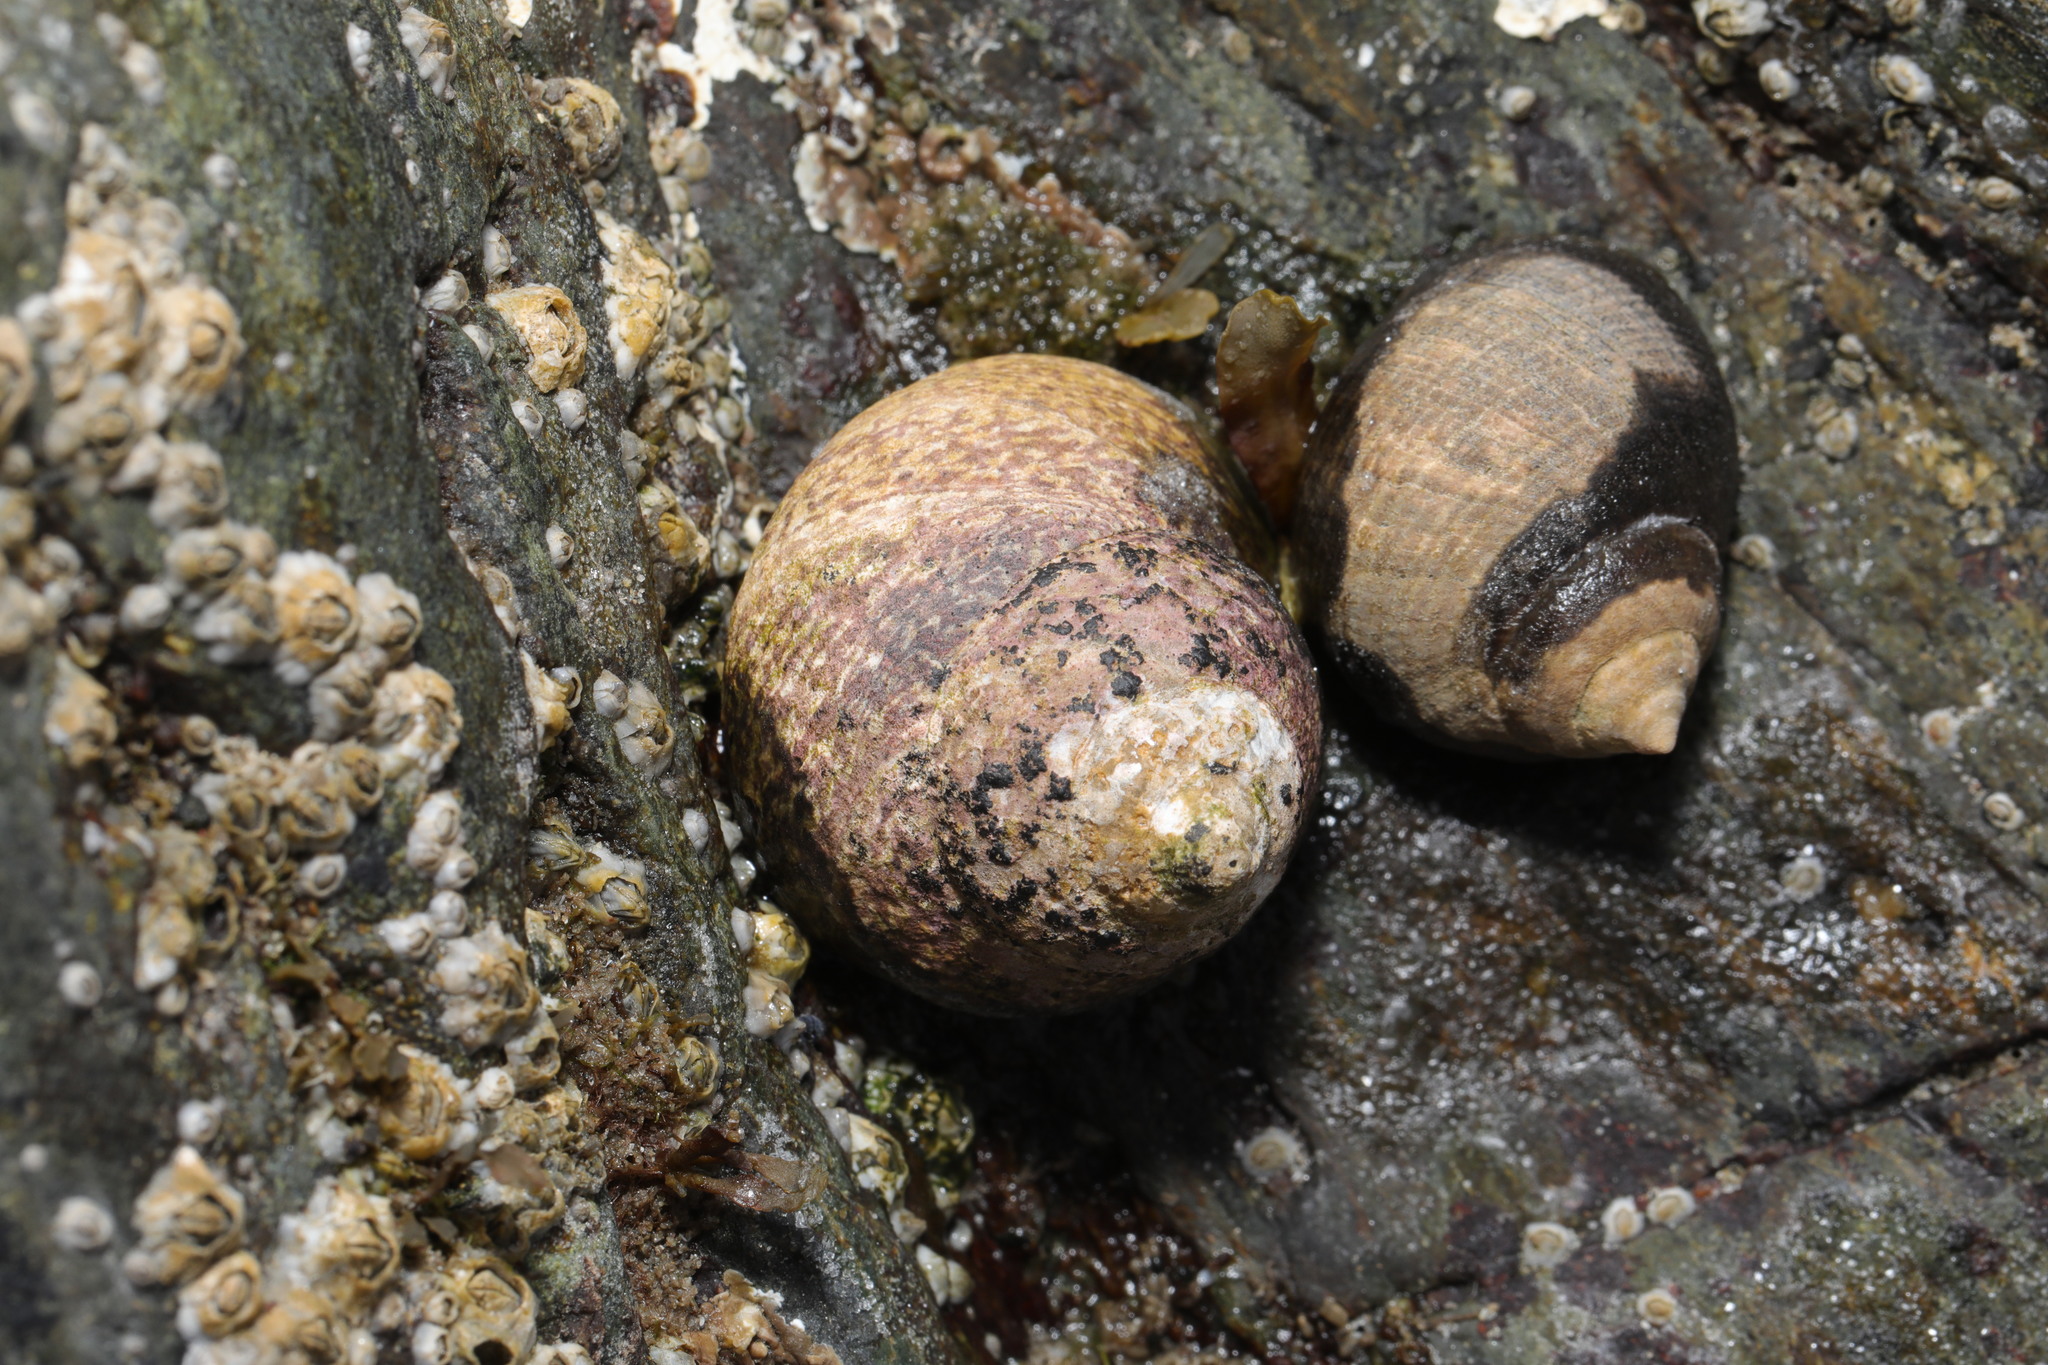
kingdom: Animalia
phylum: Mollusca
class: Gastropoda
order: Trochida
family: Trochidae
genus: Phorcus
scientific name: Phorcus lineatus
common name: Toothed top shell
